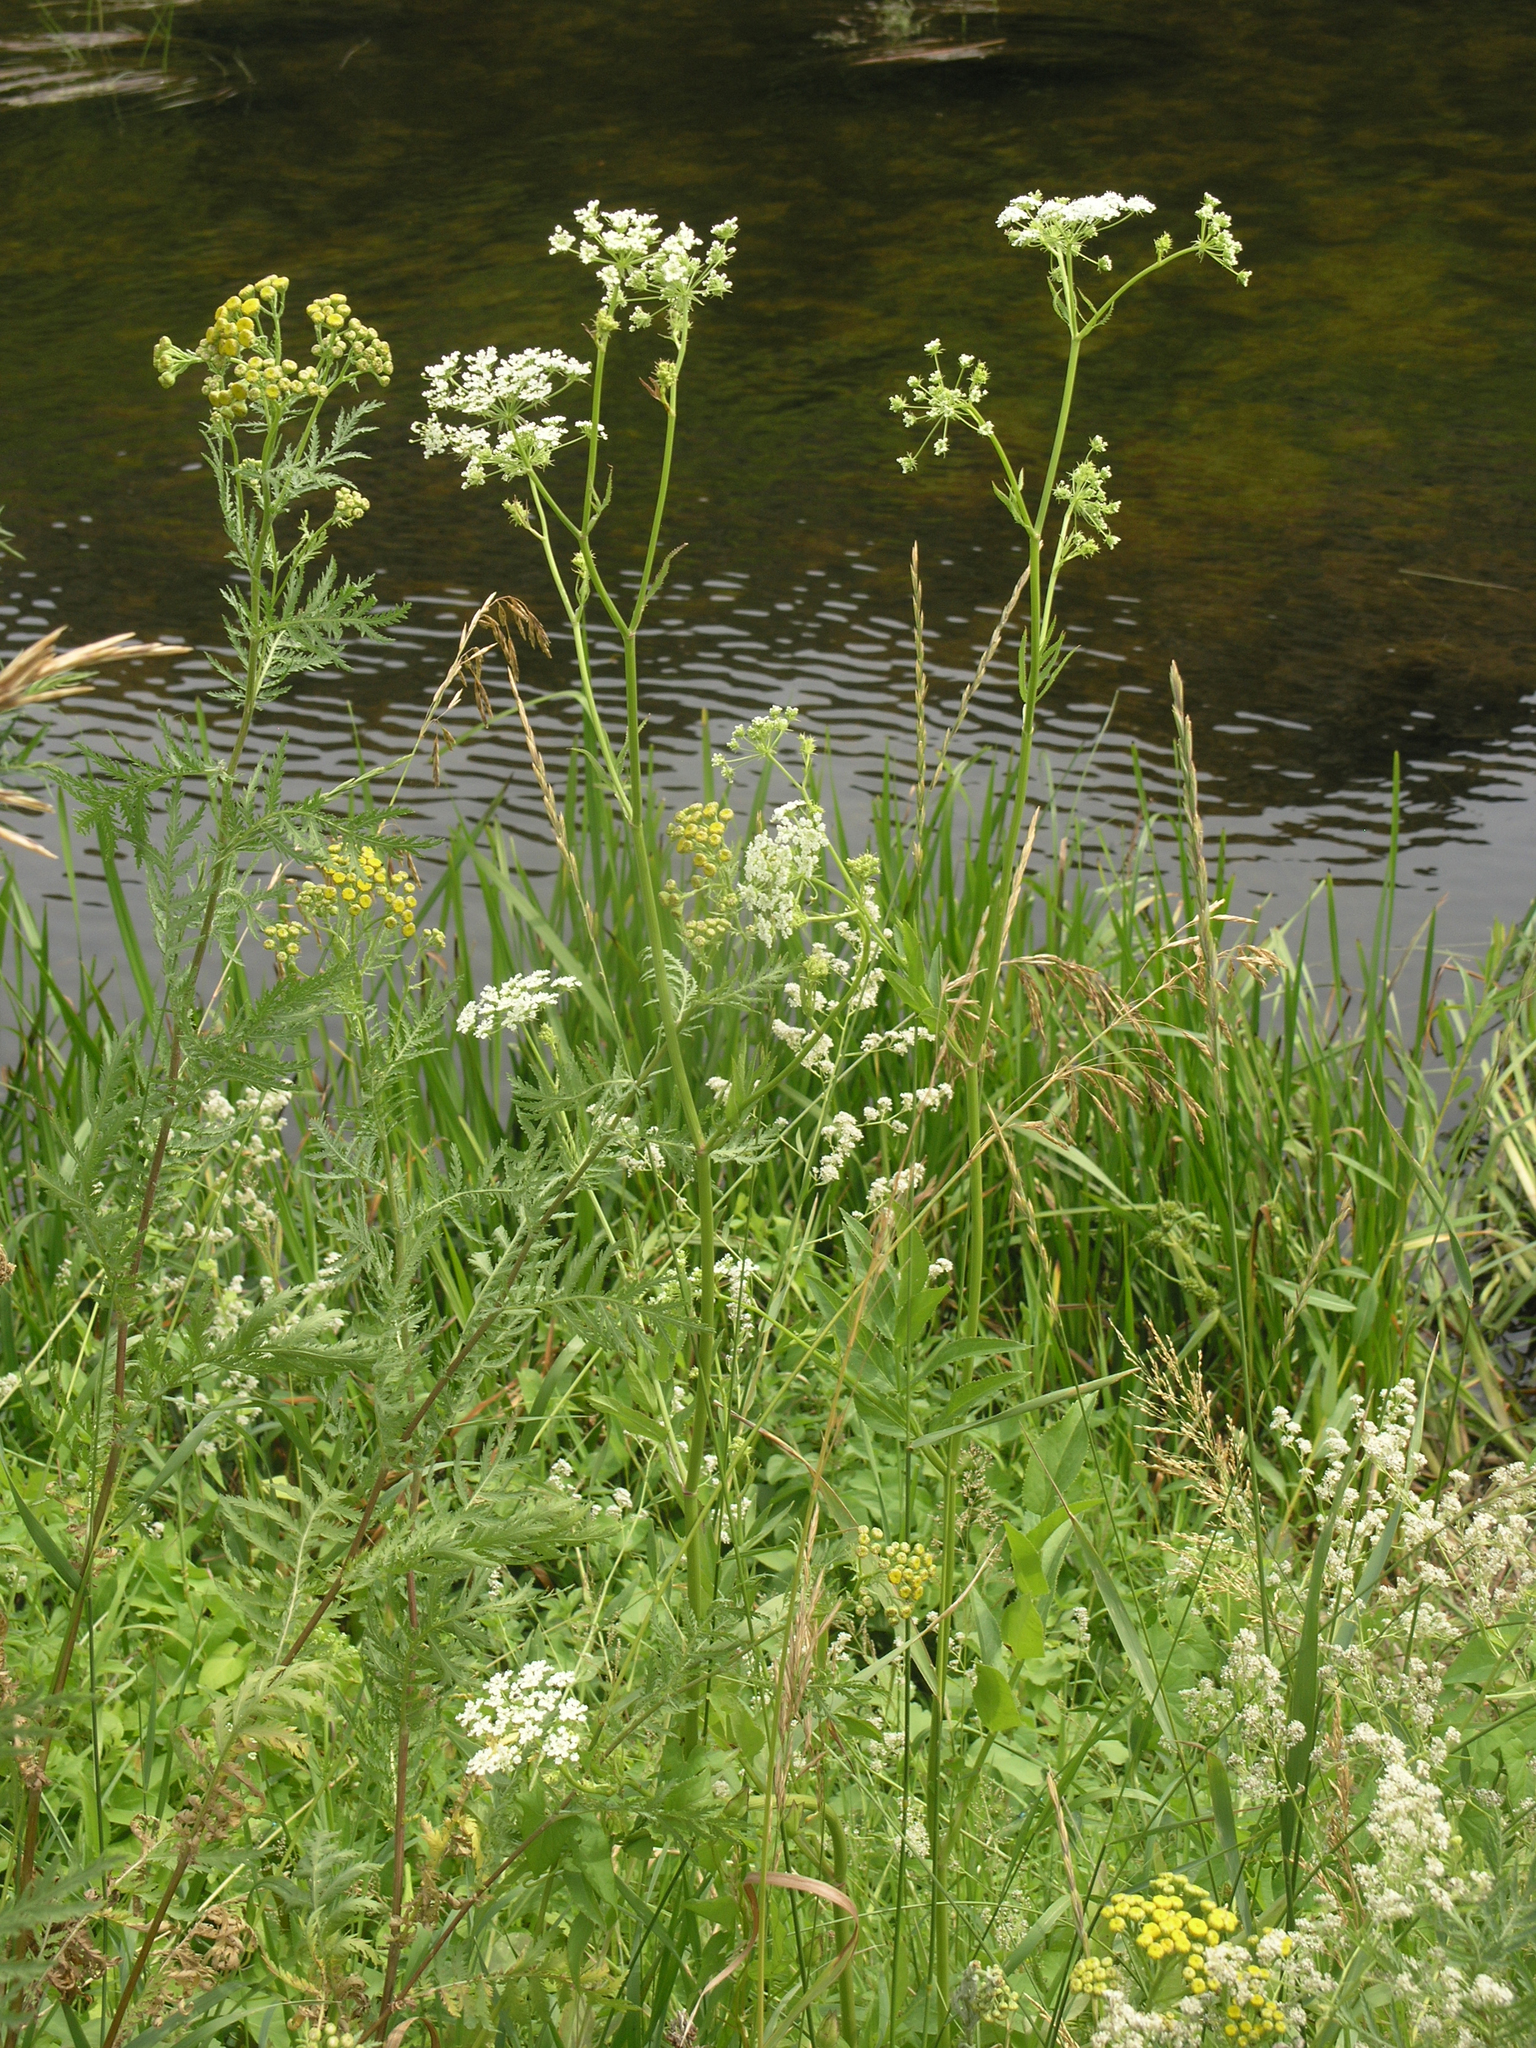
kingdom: Plantae
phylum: Tracheophyta
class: Magnoliopsida
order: Asterales
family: Asteraceae
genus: Tanacetum
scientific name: Tanacetum vulgare
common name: Common tansy
